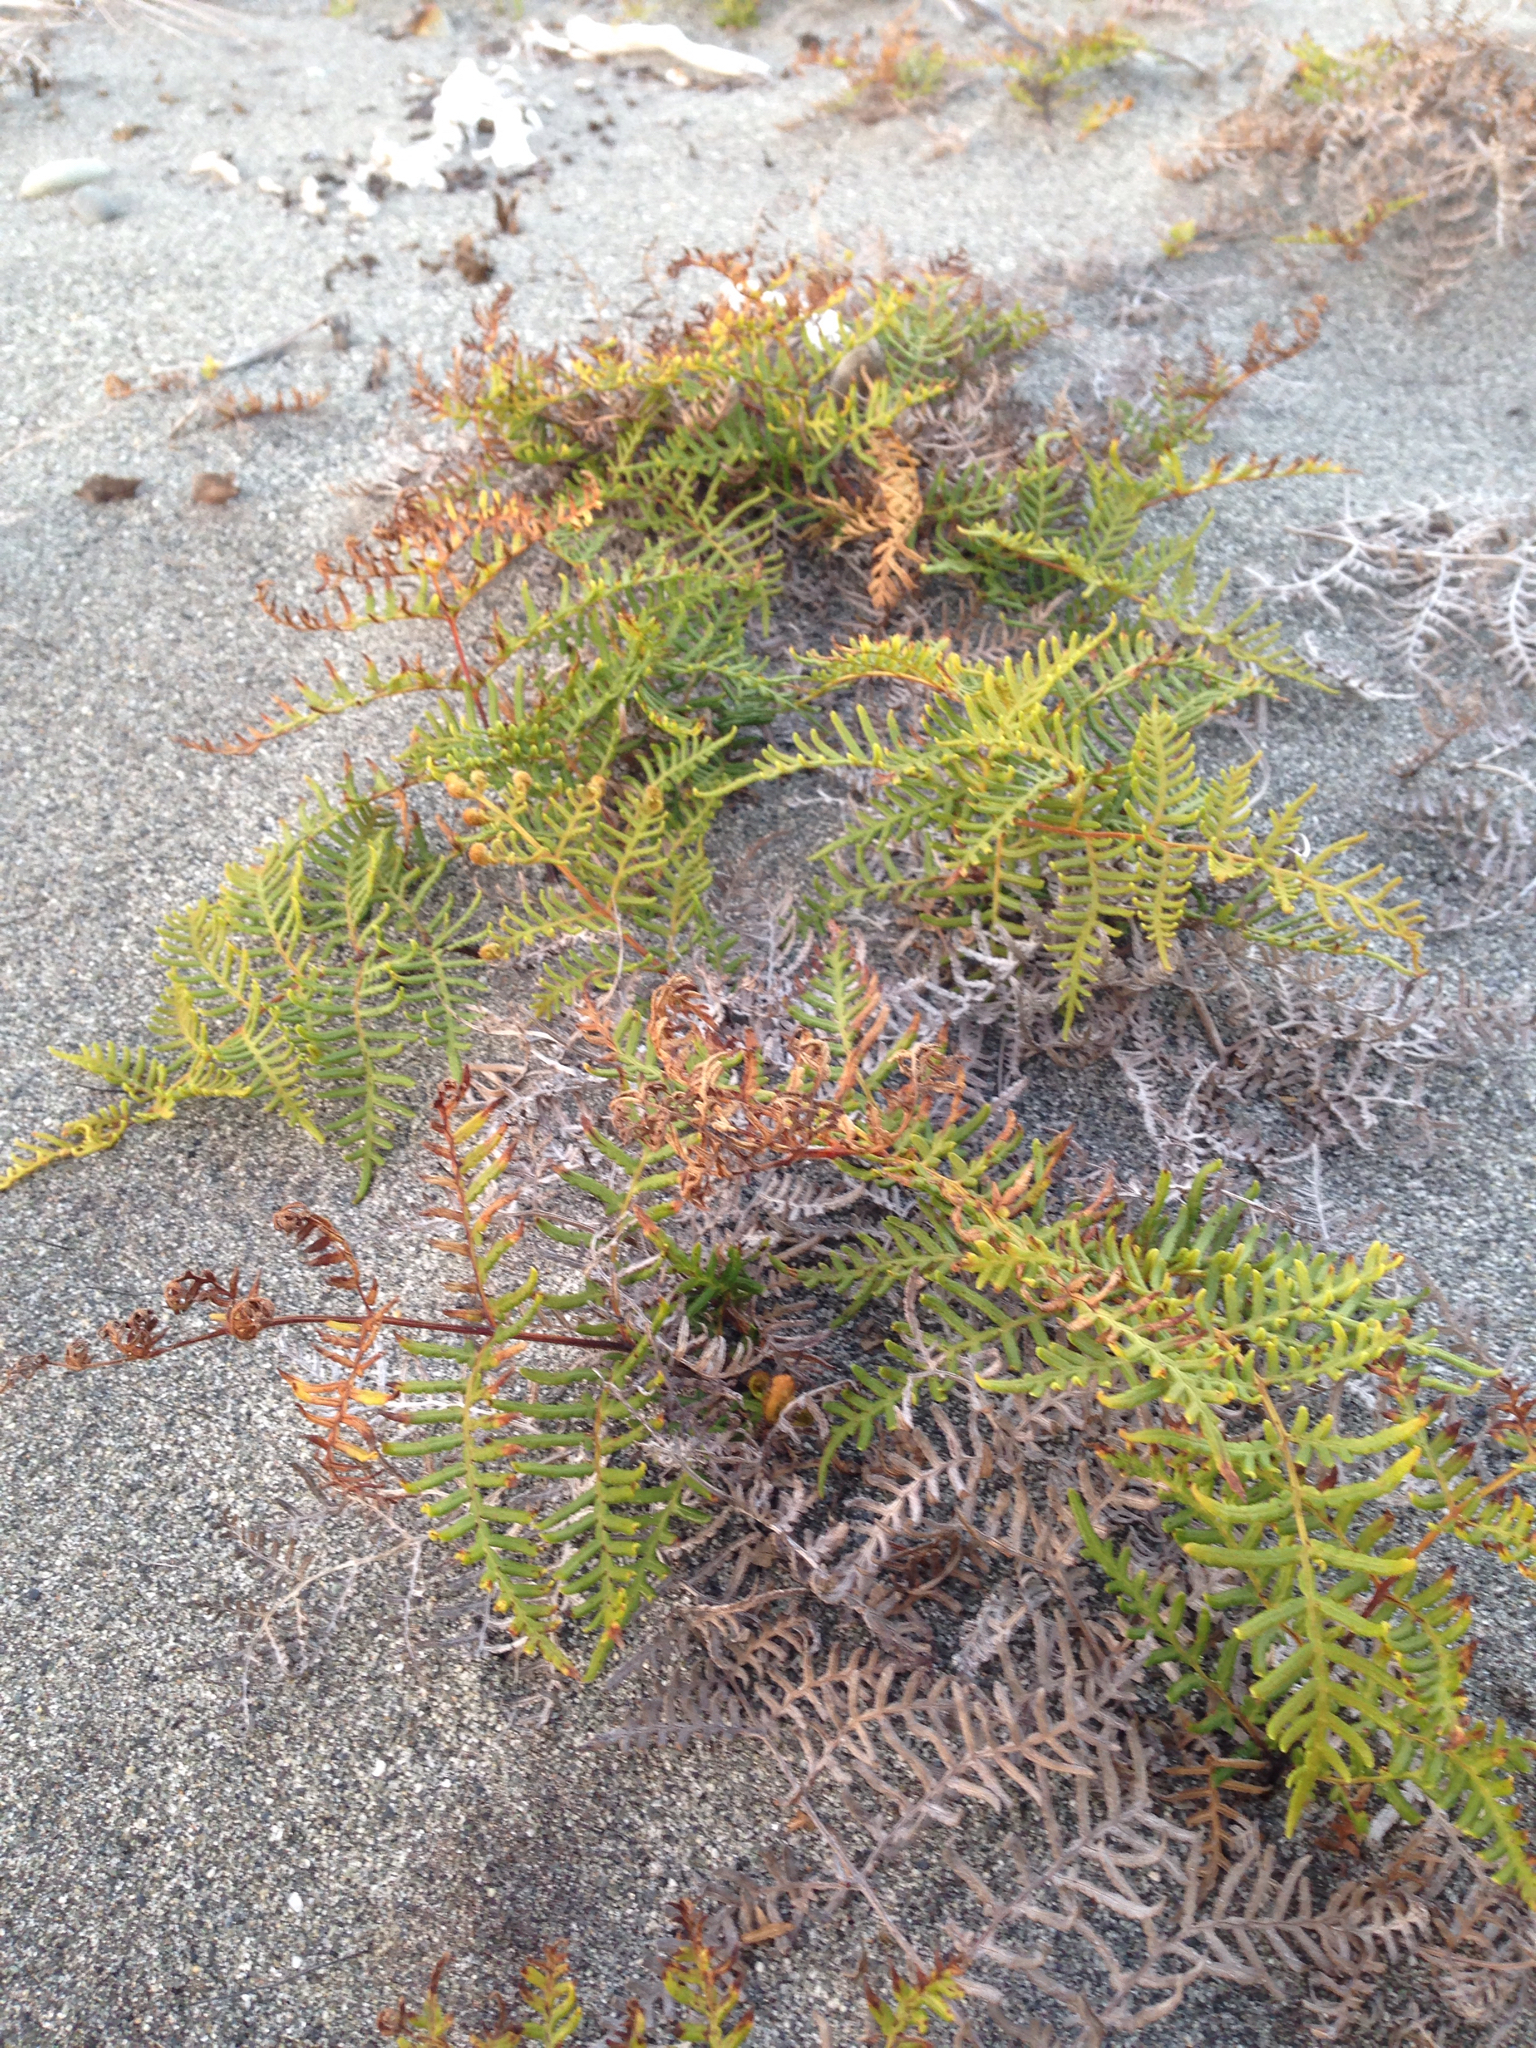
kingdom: Plantae
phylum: Tracheophyta
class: Polypodiopsida
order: Polypodiales
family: Dennstaedtiaceae
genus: Pteridium
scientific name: Pteridium esculentum
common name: Bracken fern
